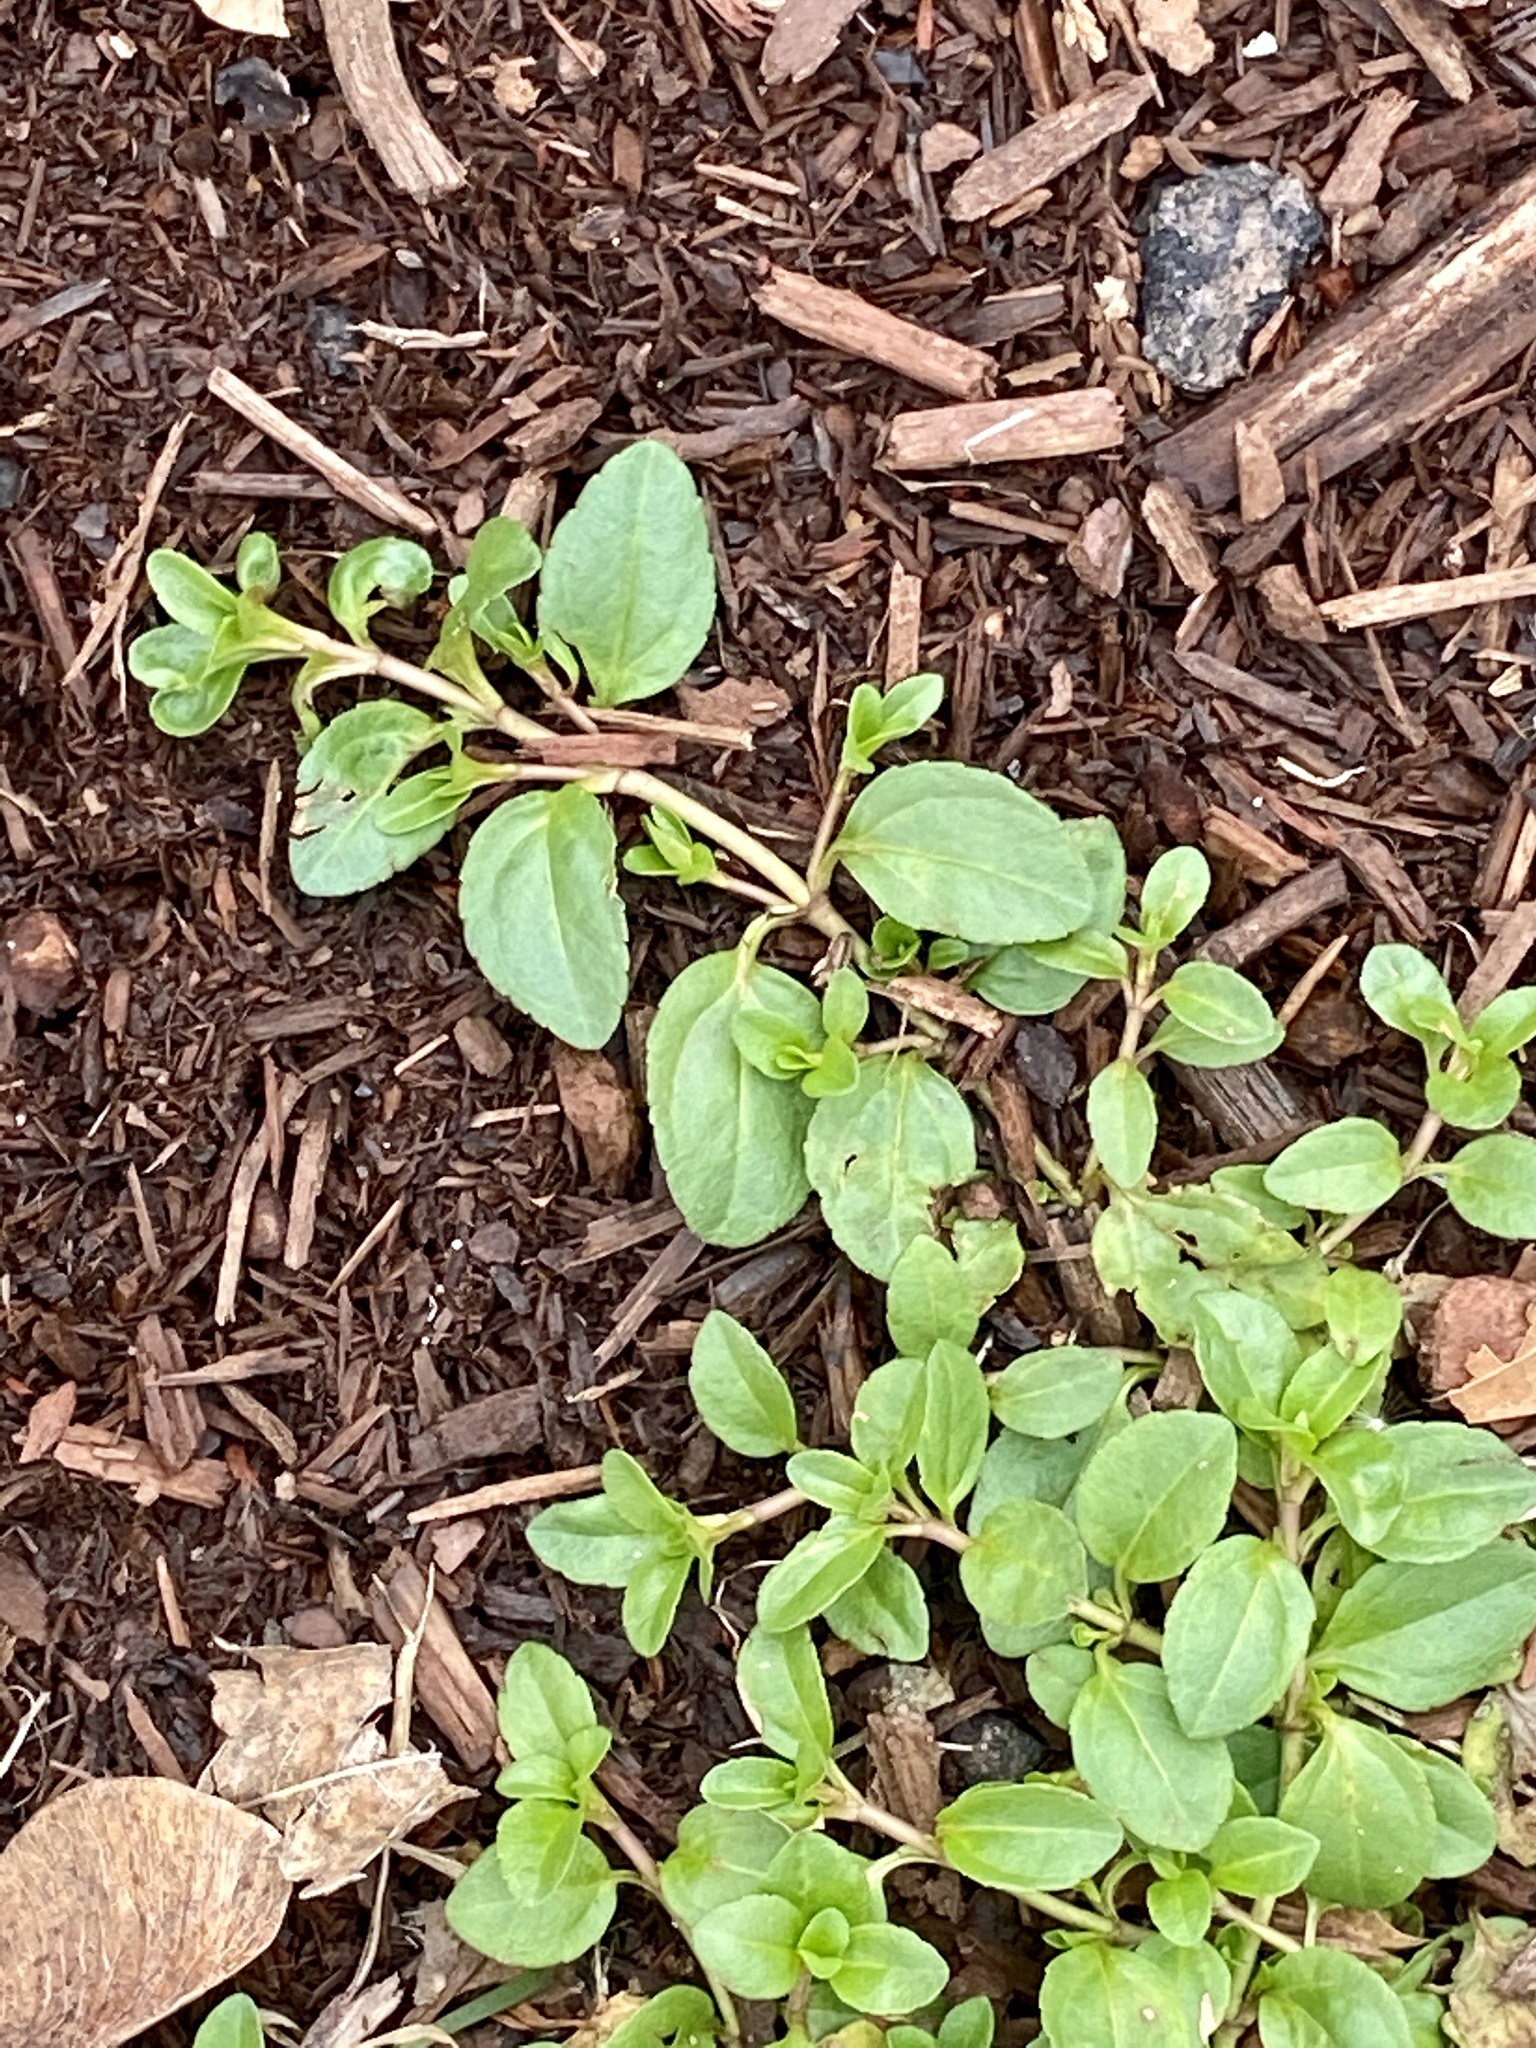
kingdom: Plantae
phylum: Tracheophyta
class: Magnoliopsida
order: Lamiales
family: Plantaginaceae
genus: Veronica
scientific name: Veronica serpyllifolia
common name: Thyme-leaved speedwell
